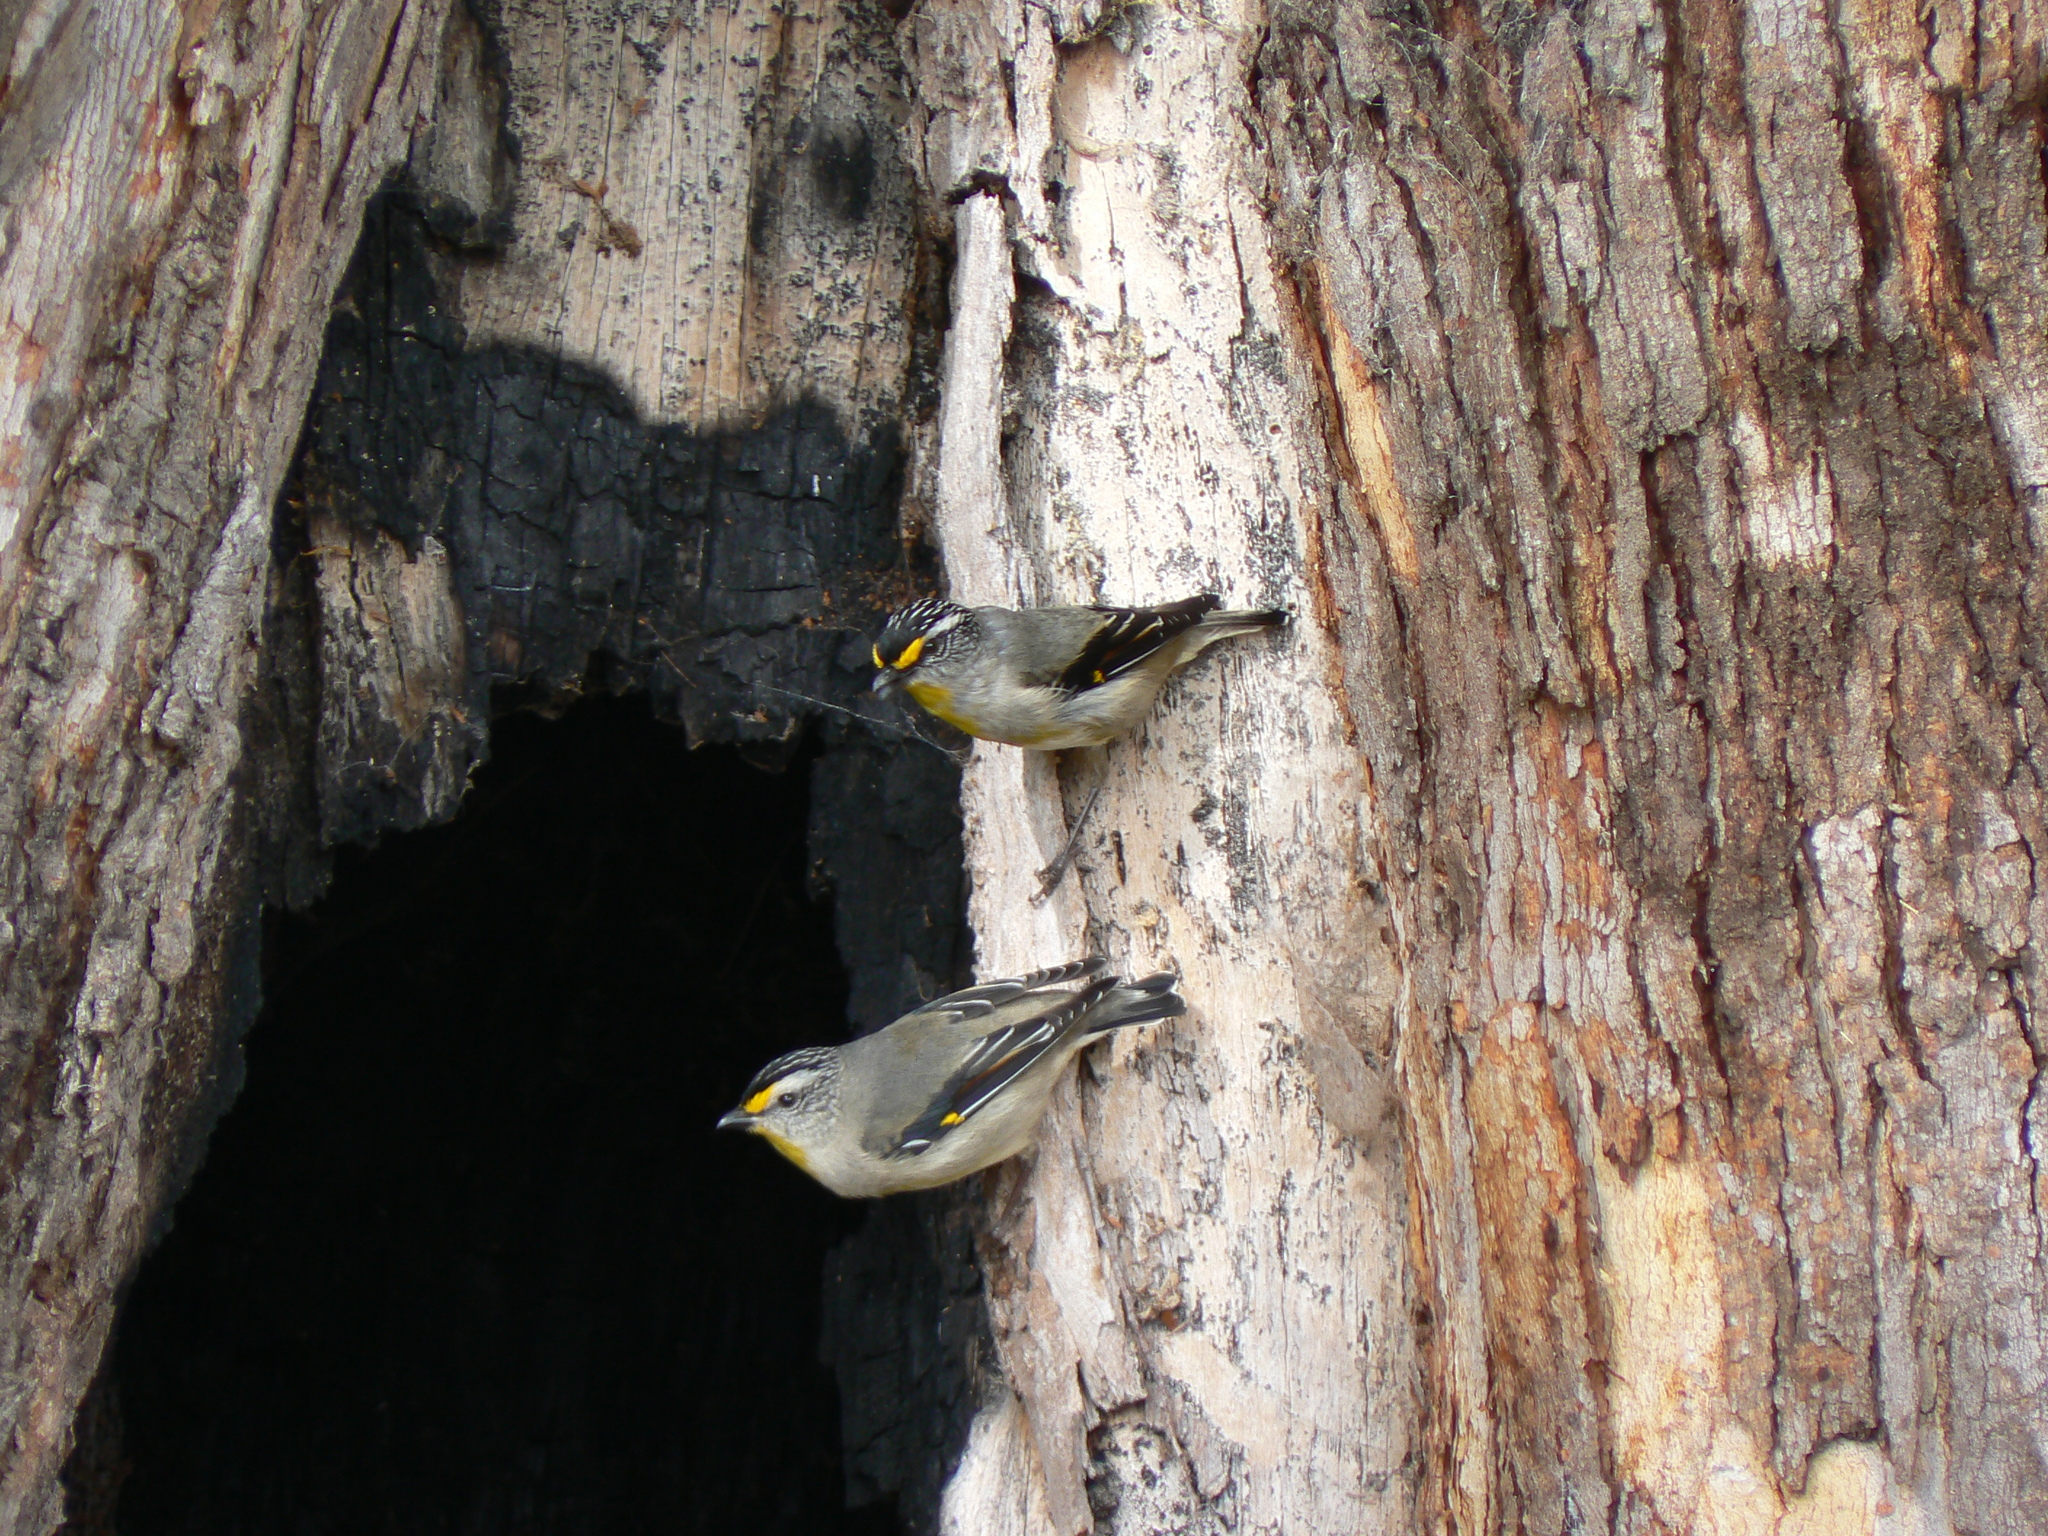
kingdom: Animalia
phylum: Chordata
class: Aves
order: Passeriformes
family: Pardalotidae
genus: Pardalotus
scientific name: Pardalotus striatus
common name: Striated pardalote
